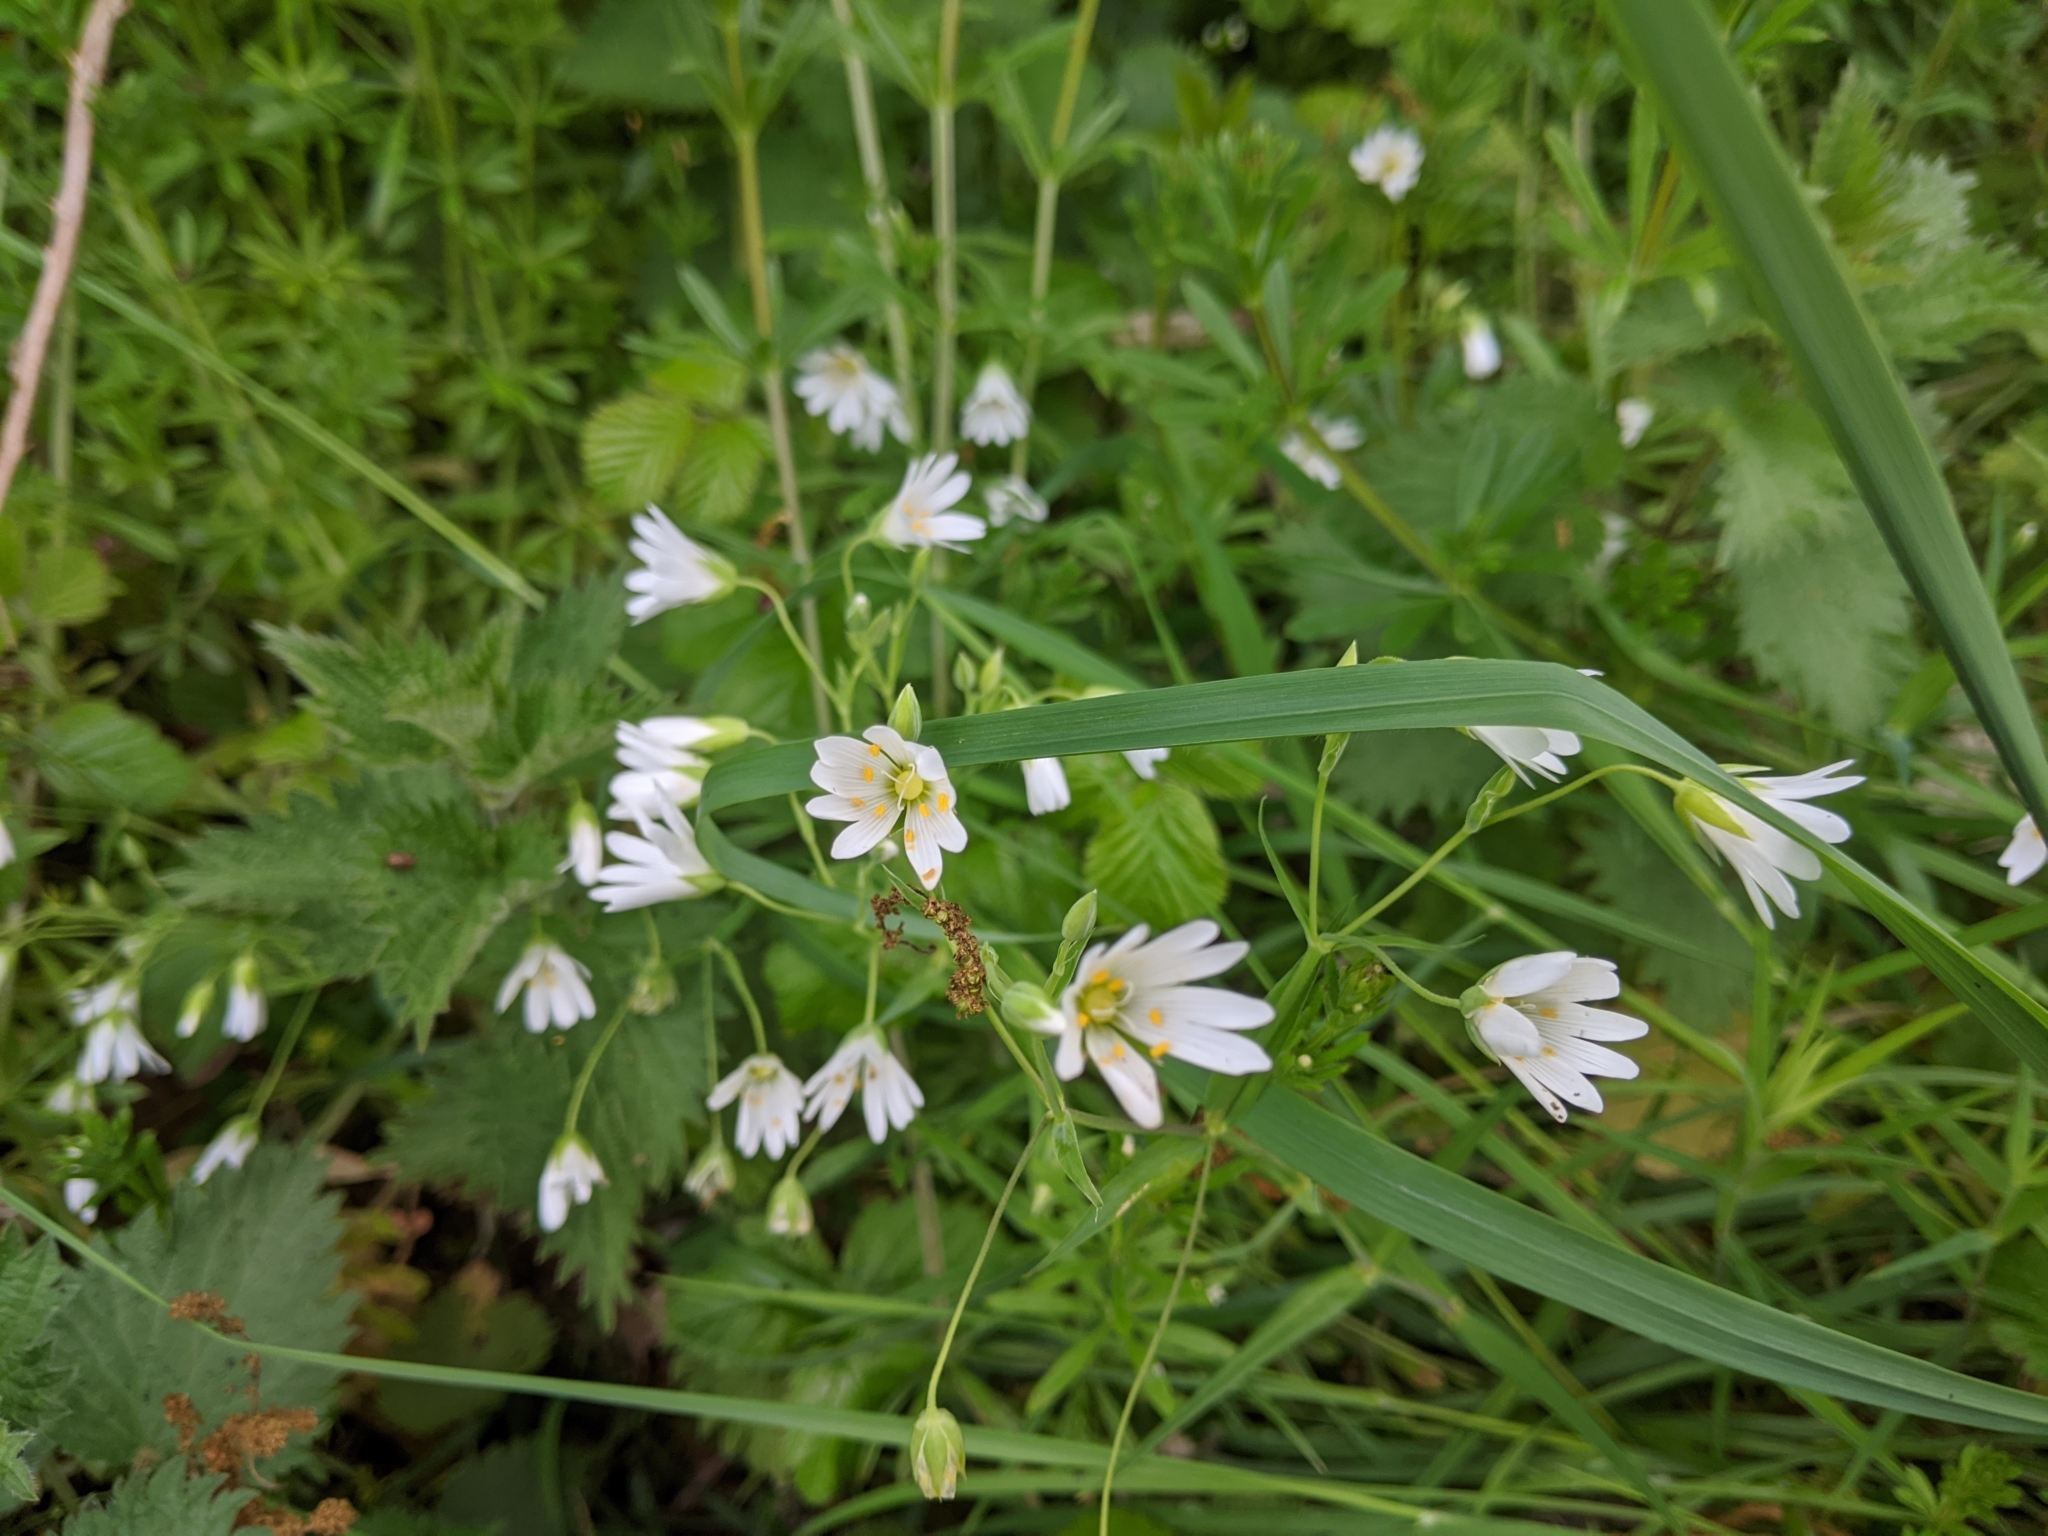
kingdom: Plantae
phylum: Tracheophyta
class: Magnoliopsida
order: Caryophyllales
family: Caryophyllaceae
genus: Rabelera
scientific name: Rabelera holostea
